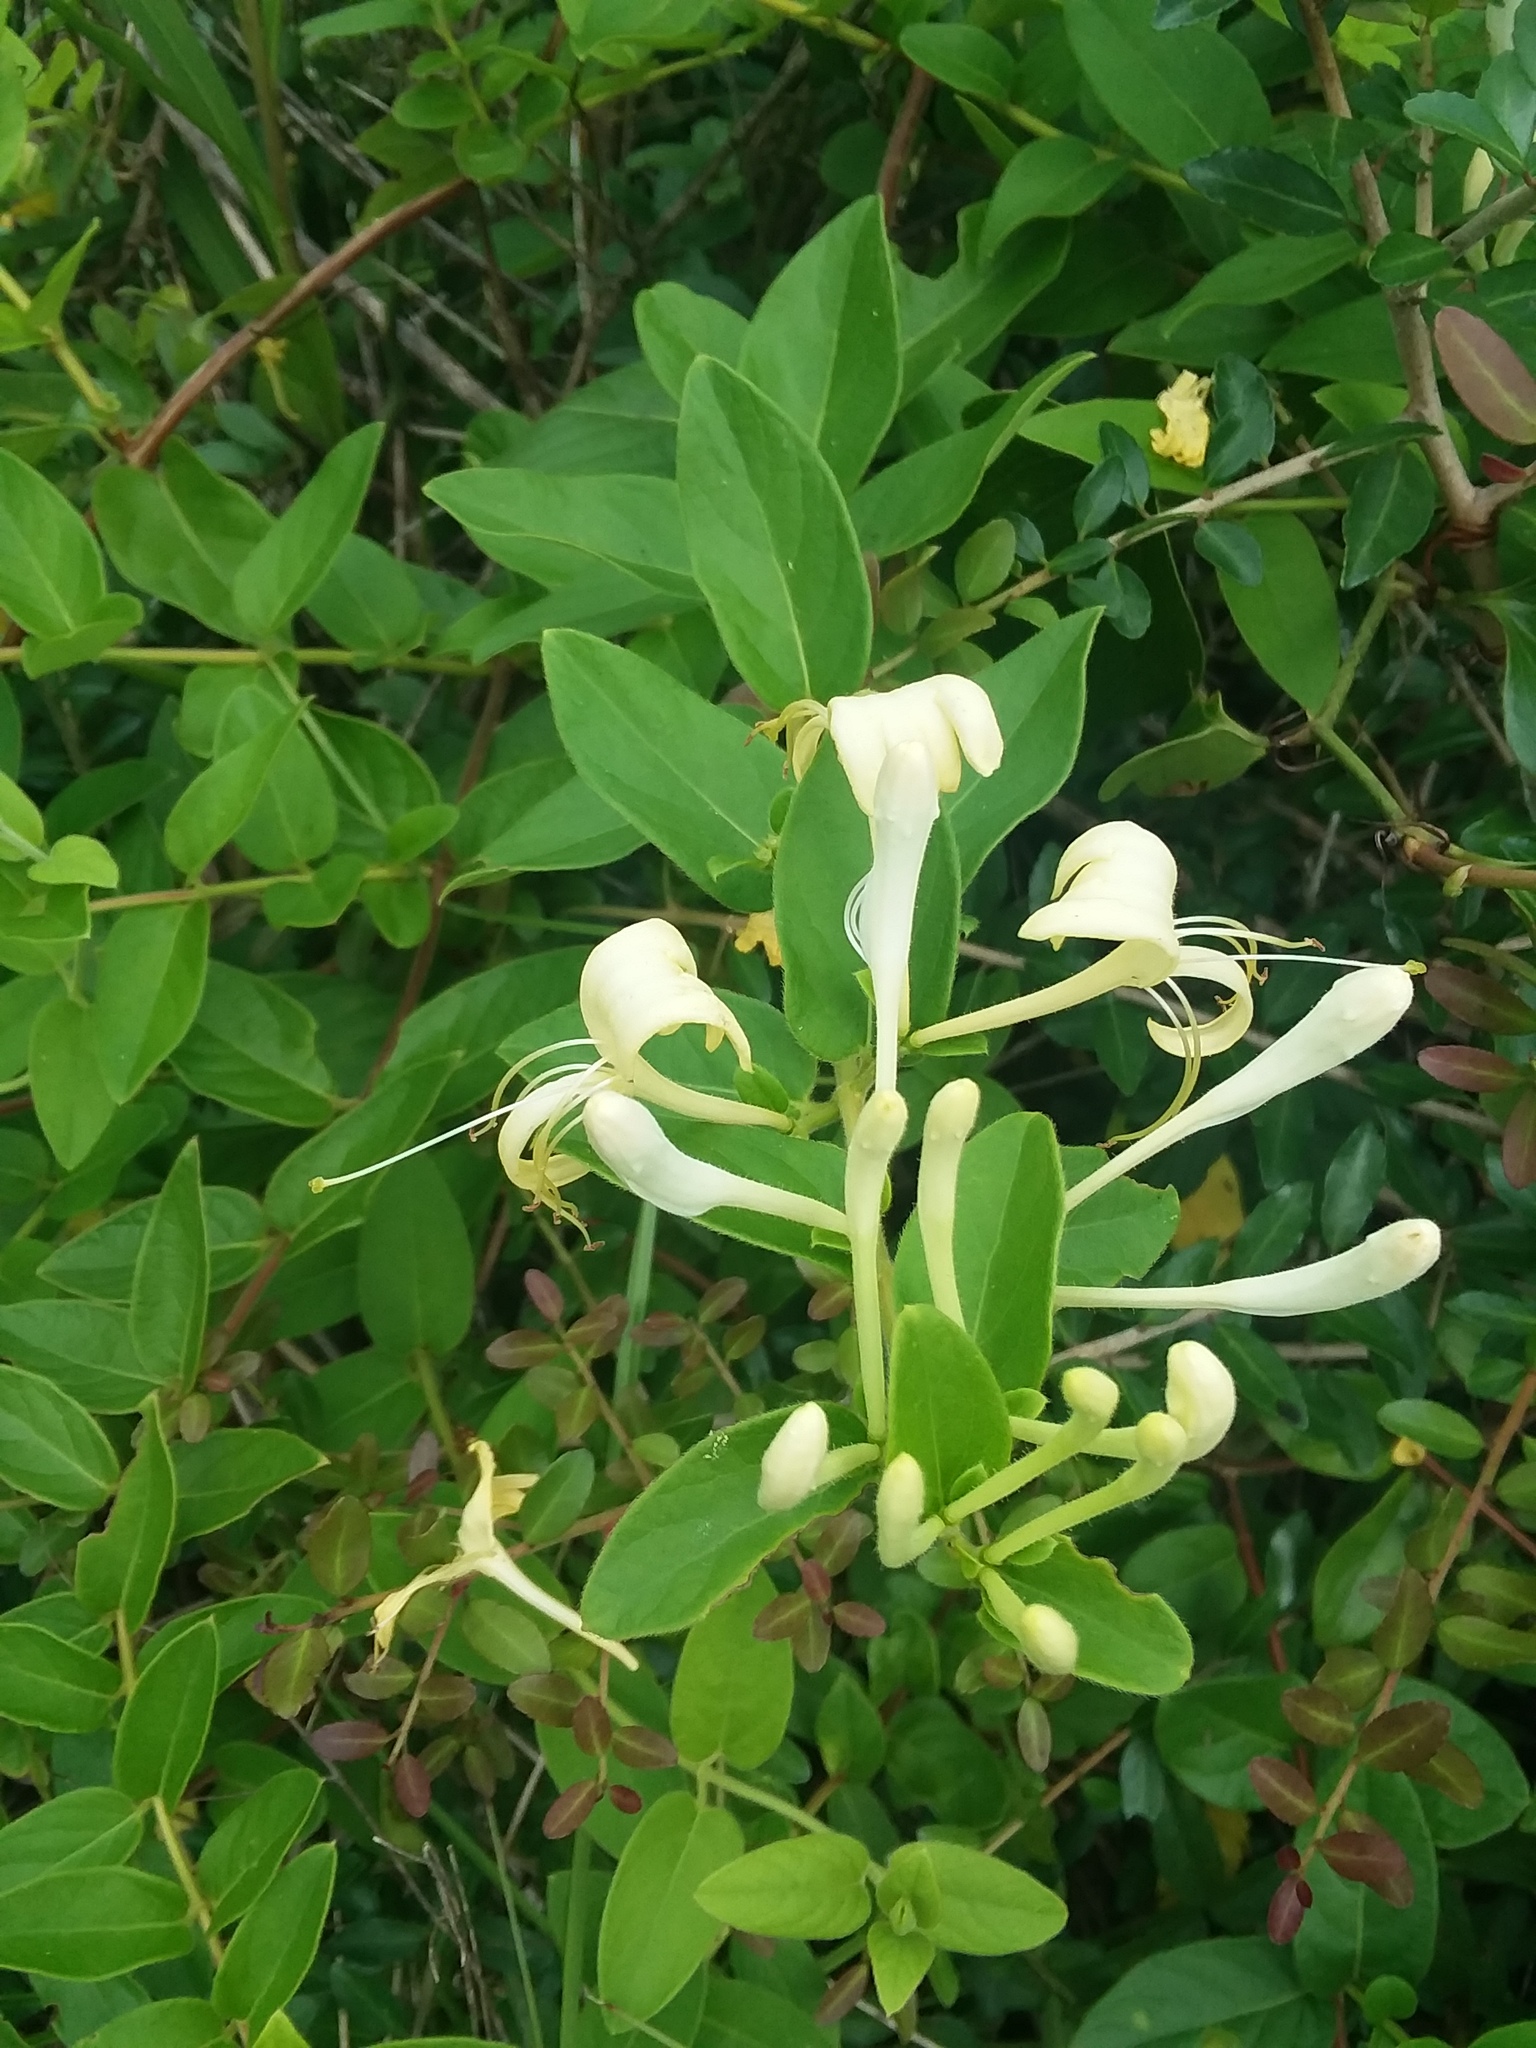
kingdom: Plantae
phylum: Tracheophyta
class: Magnoliopsida
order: Dipsacales
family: Caprifoliaceae
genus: Lonicera
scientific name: Lonicera japonica
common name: Japanese honeysuckle
